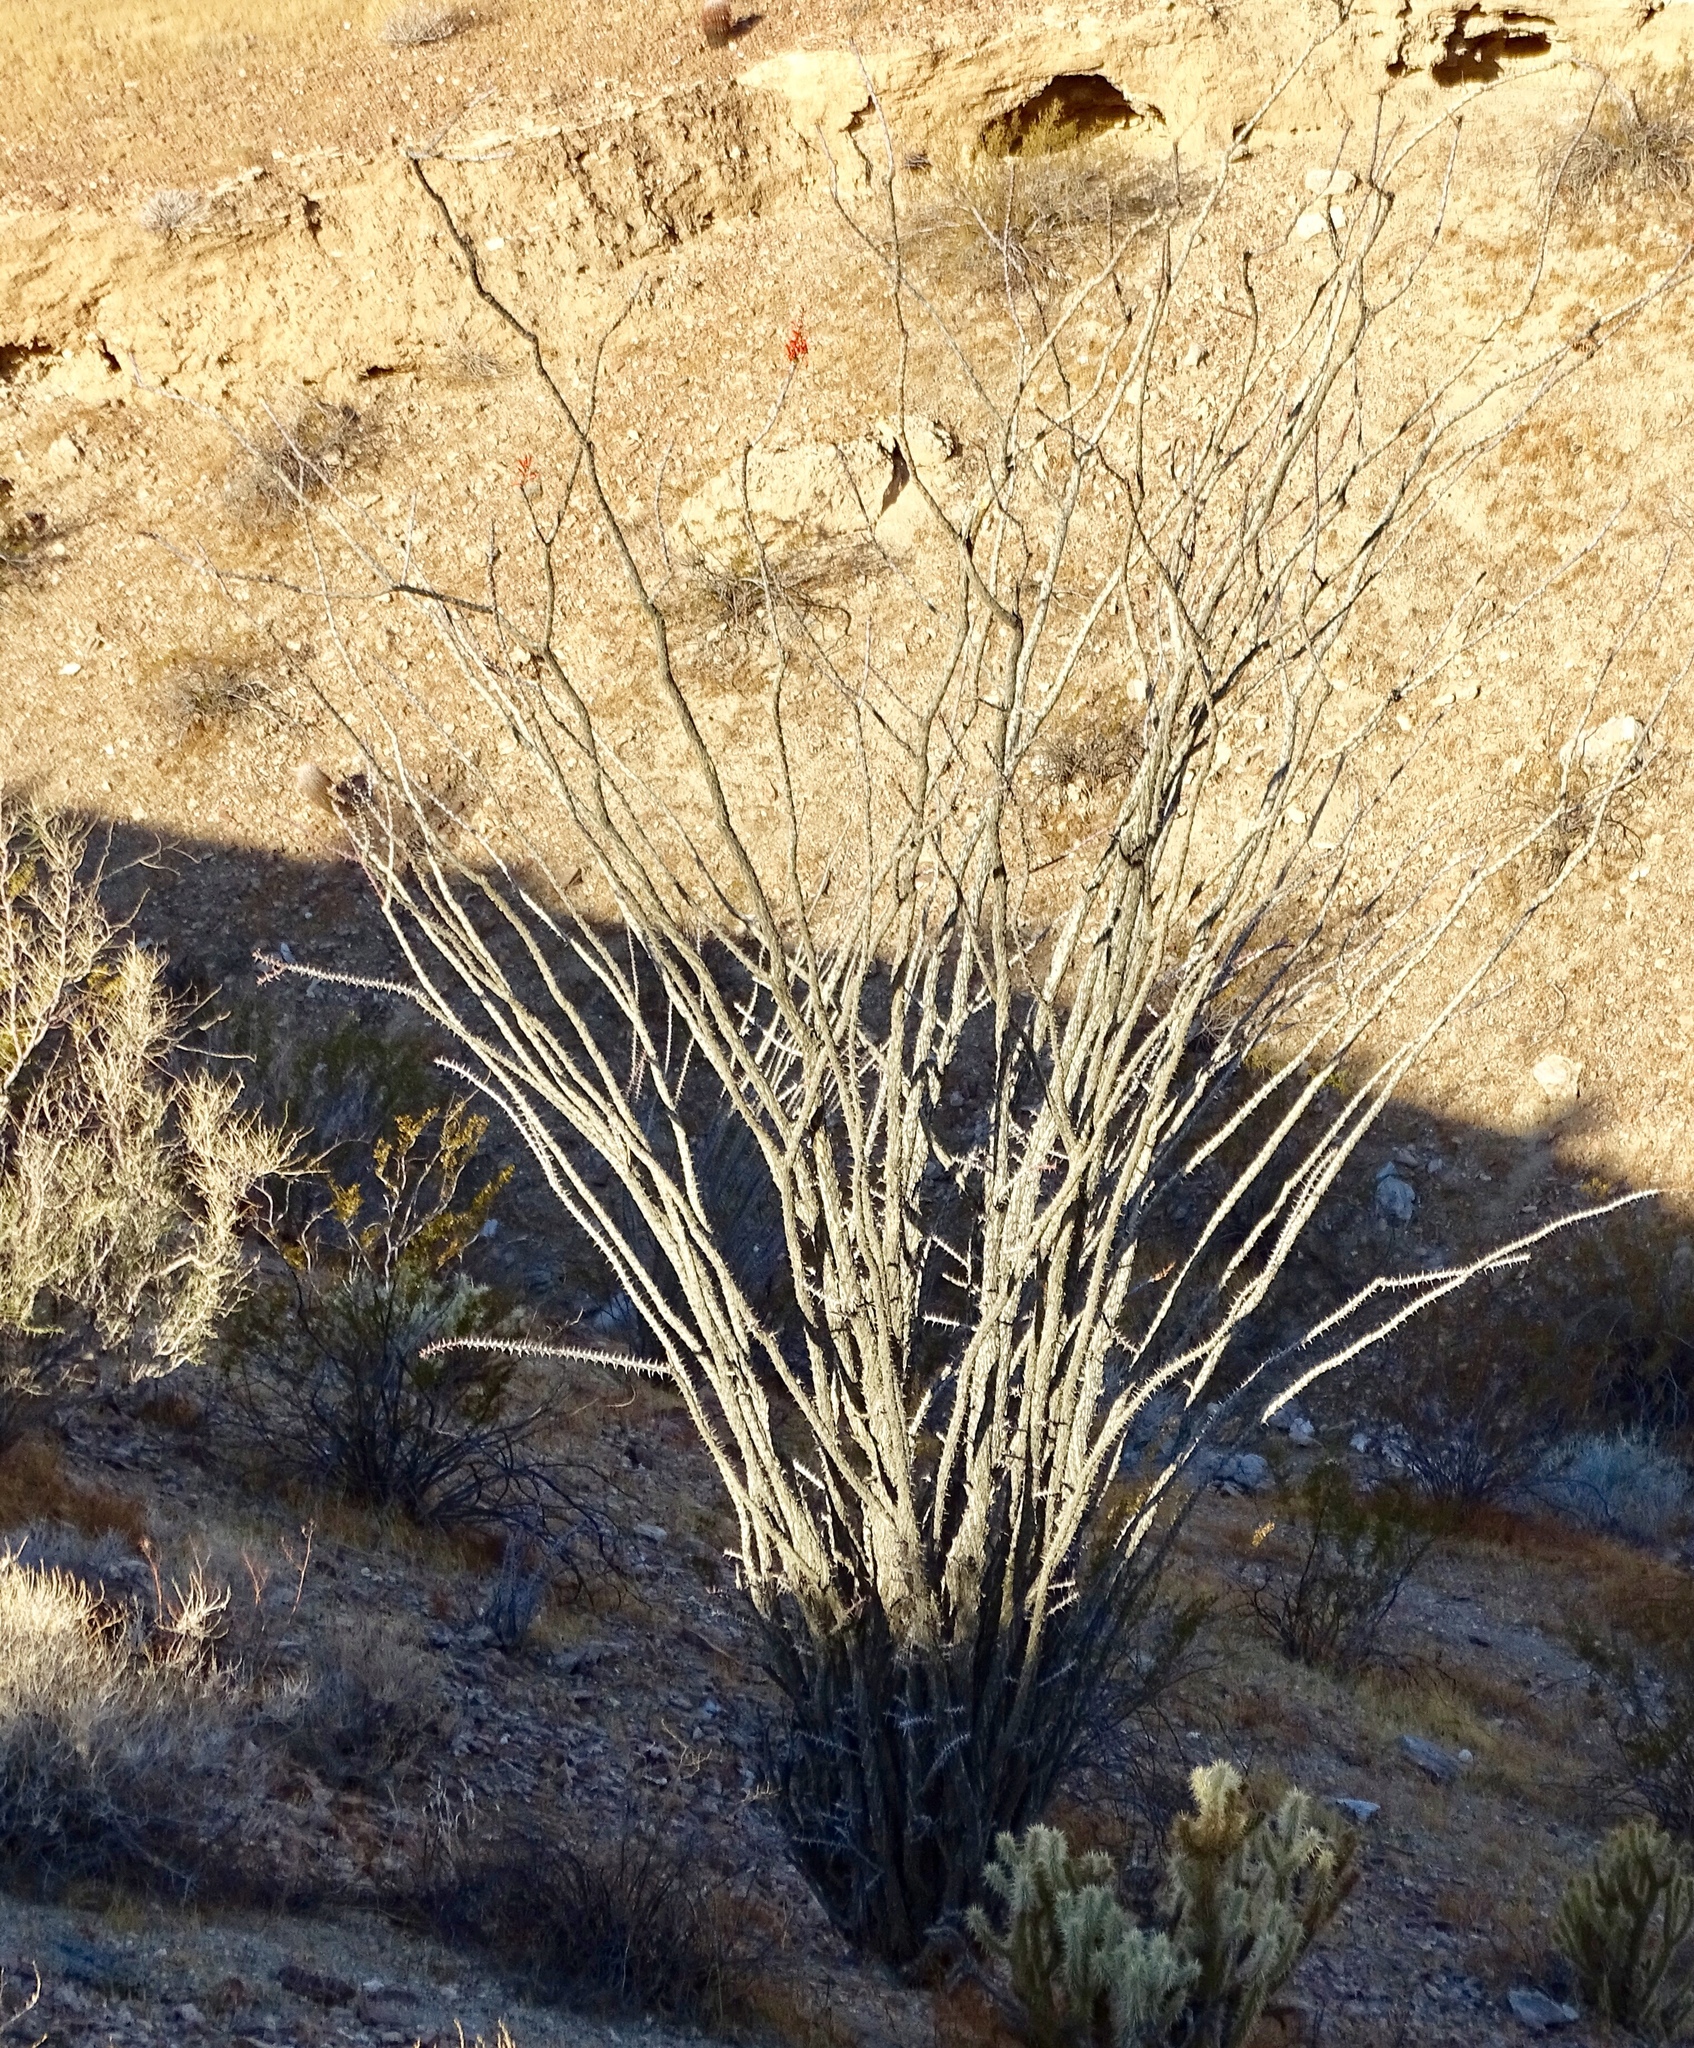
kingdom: Plantae
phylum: Tracheophyta
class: Magnoliopsida
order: Ericales
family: Fouquieriaceae
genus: Fouquieria
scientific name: Fouquieria splendens
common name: Vine-cactus
